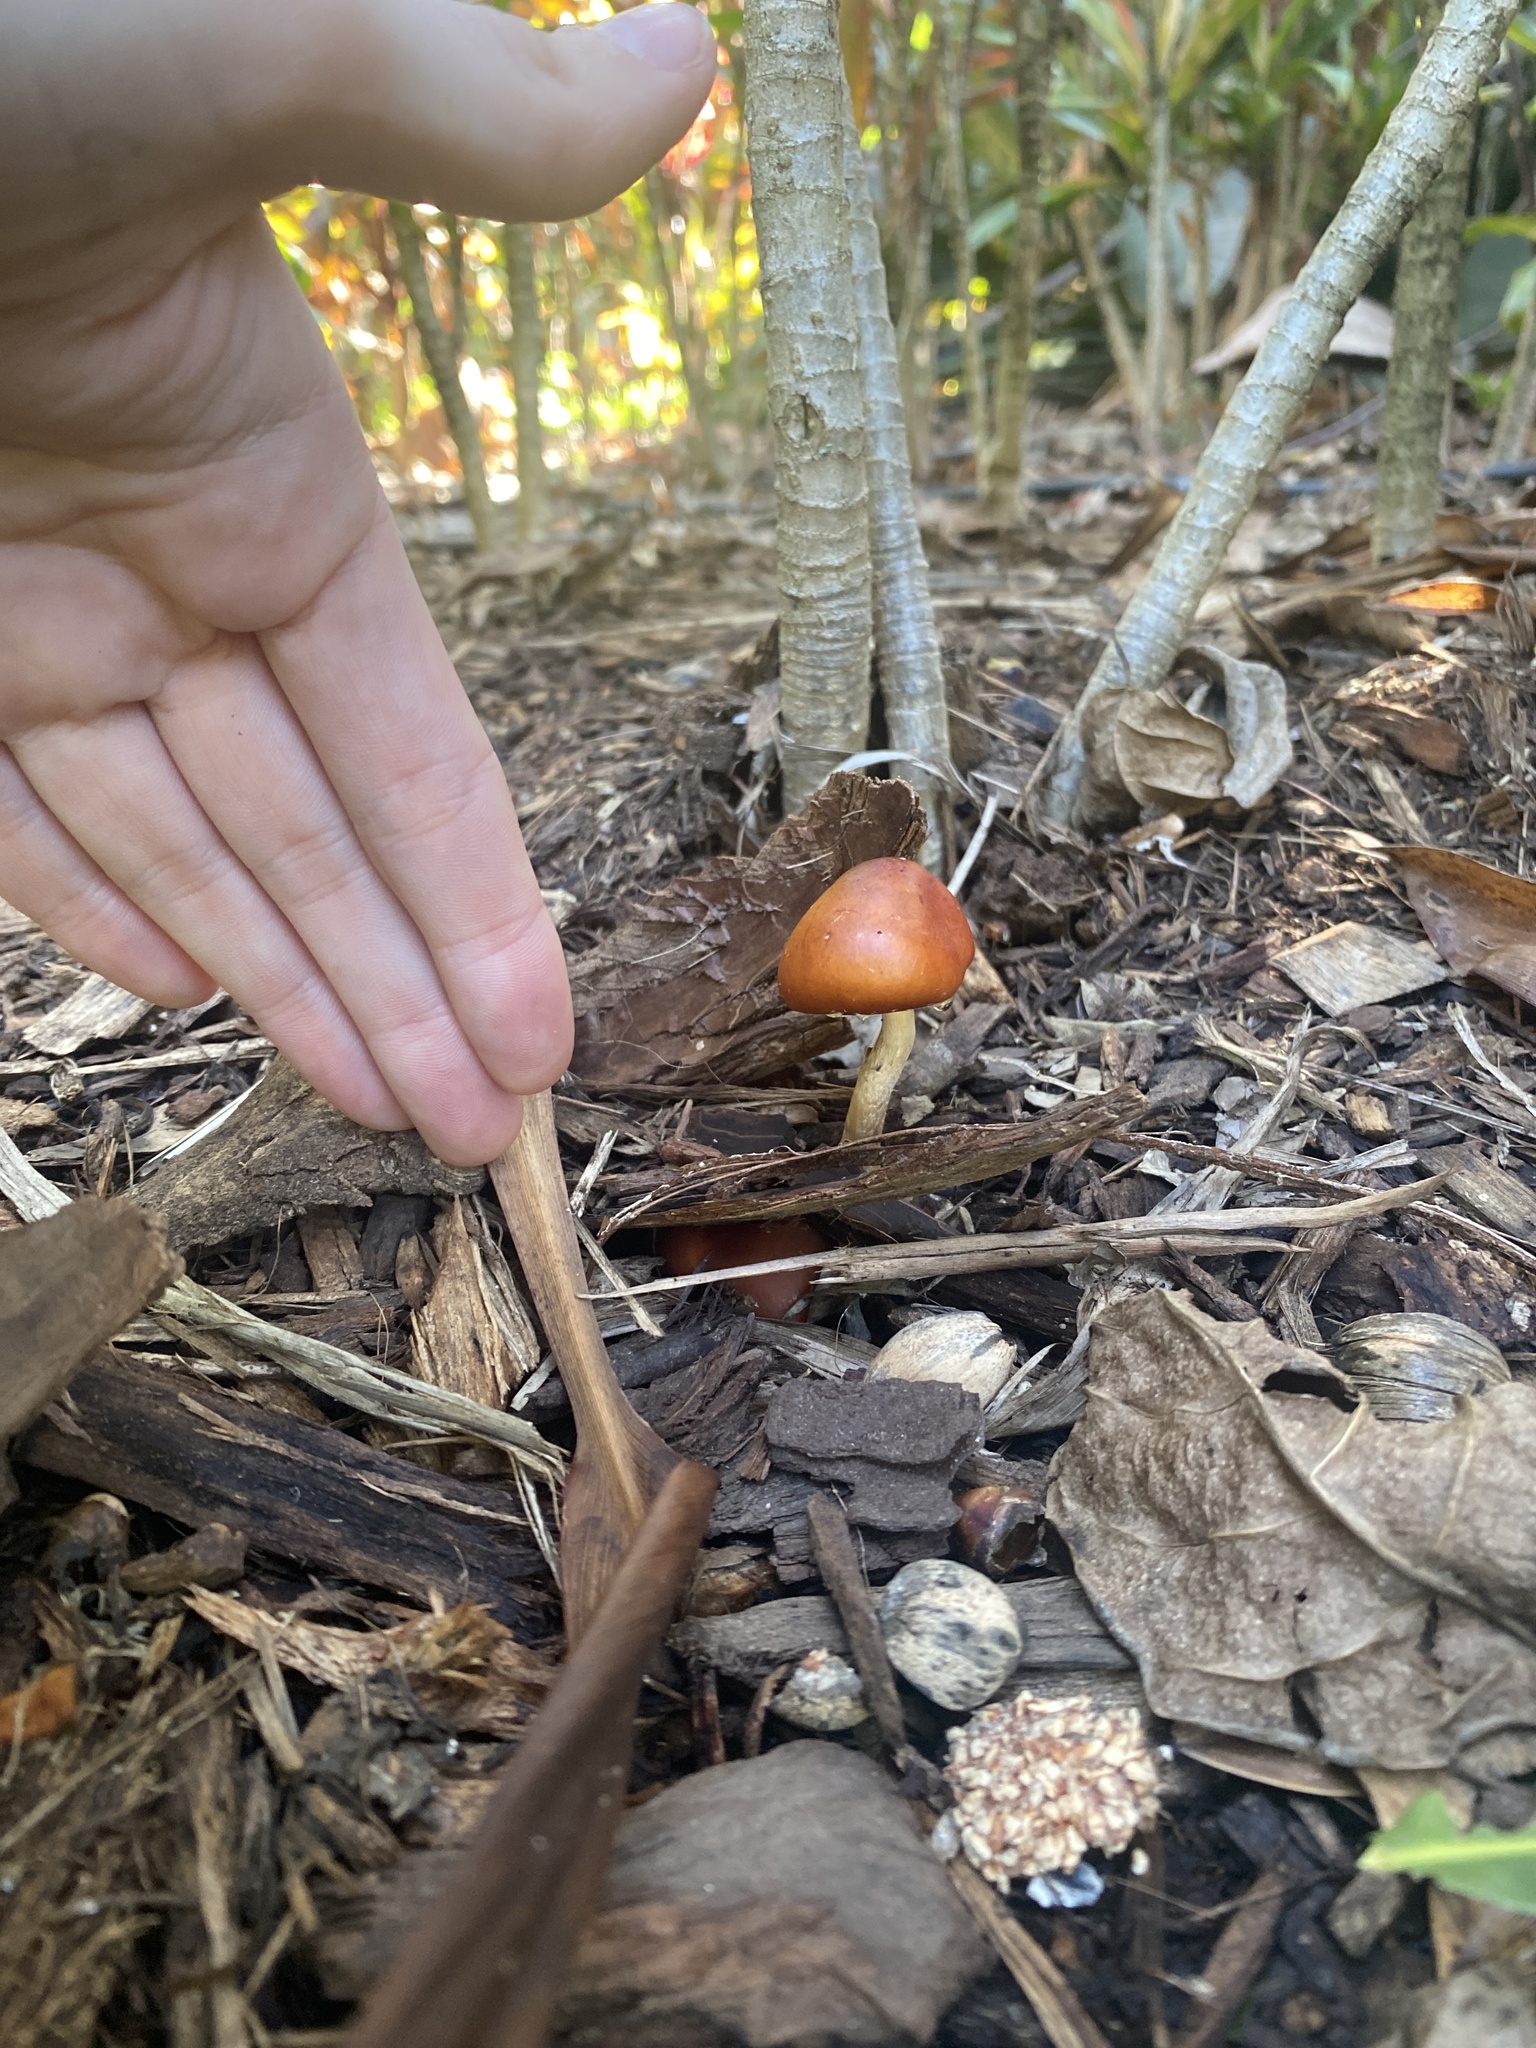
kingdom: Fungi
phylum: Basidiomycota
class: Agaricomycetes
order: Agaricales
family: Strophariaceae
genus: Leratiomyces
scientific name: Leratiomyces ceres
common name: Redlead roundhead
